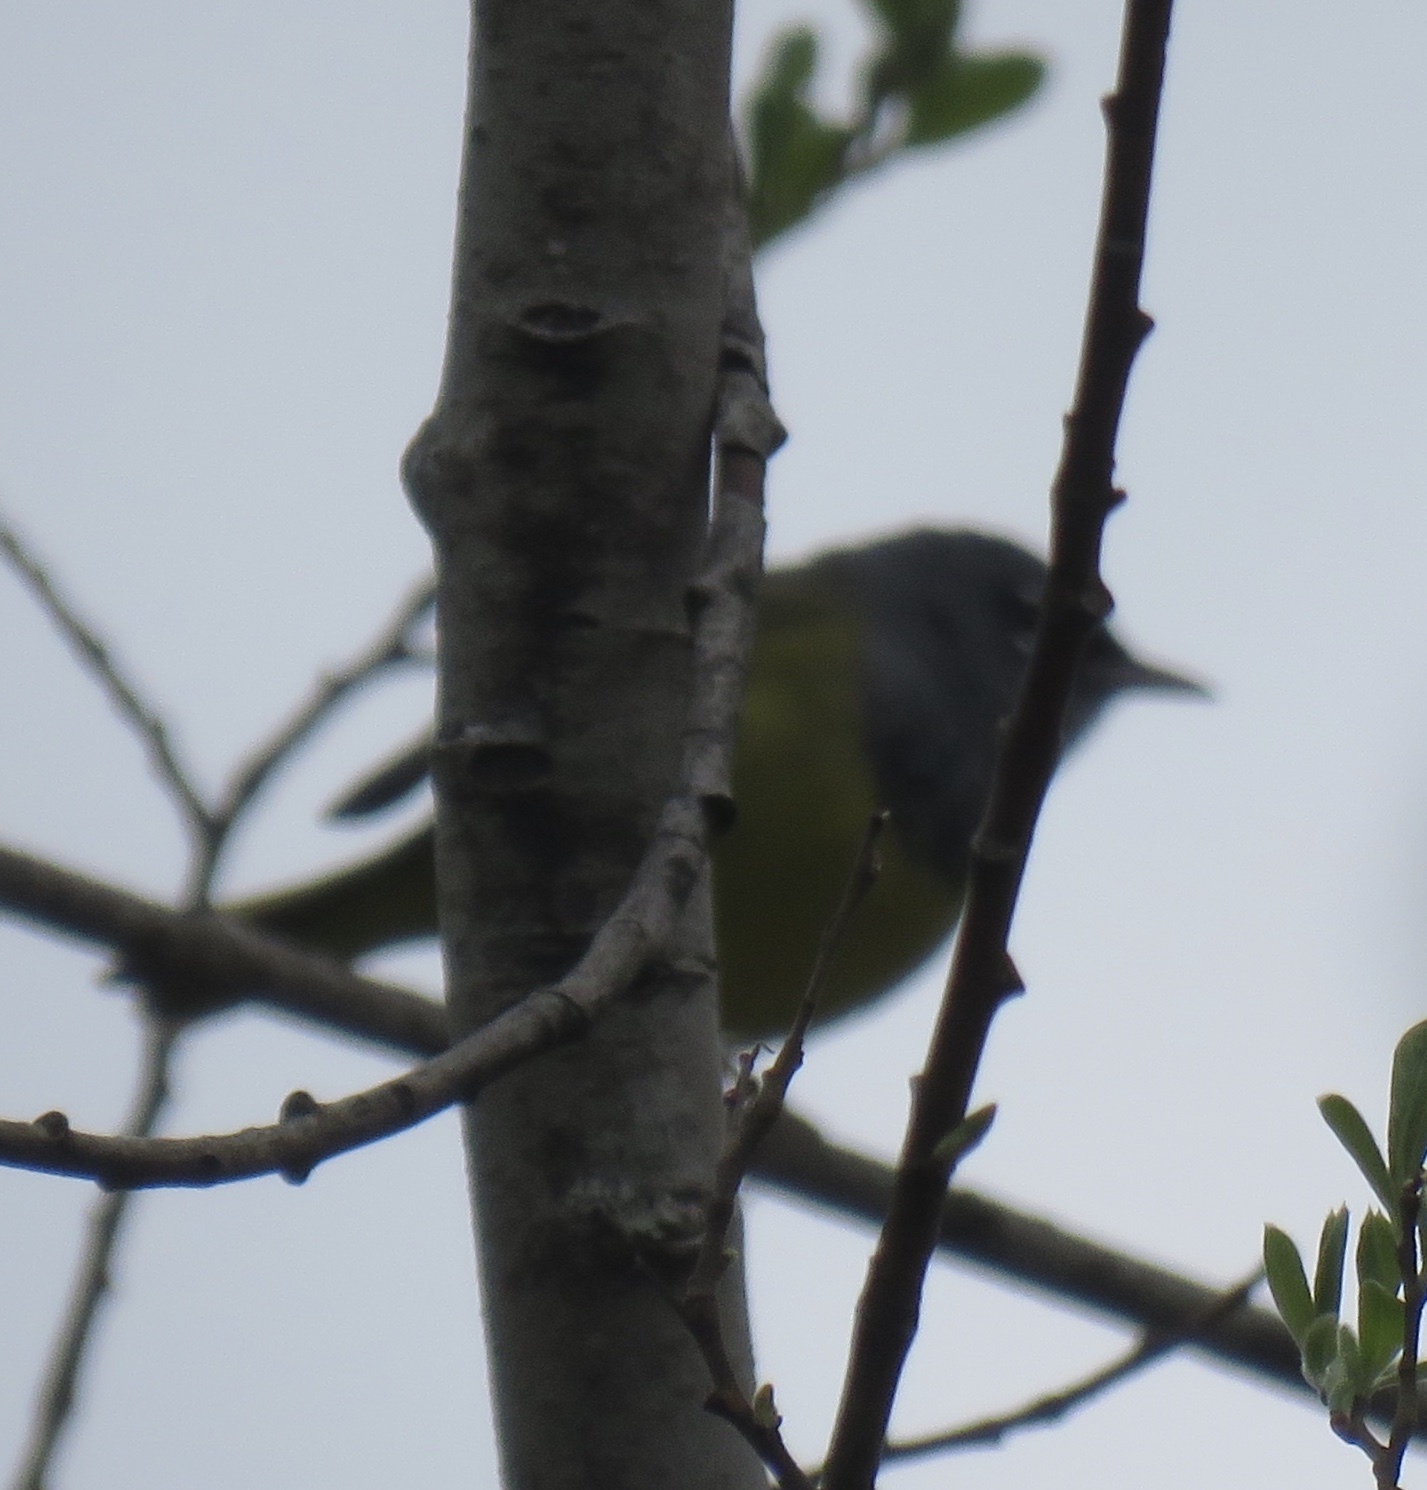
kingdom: Animalia
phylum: Chordata
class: Aves
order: Passeriformes
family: Parulidae
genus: Geothlypis
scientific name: Geothlypis tolmiei
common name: Macgillivray's warbler
